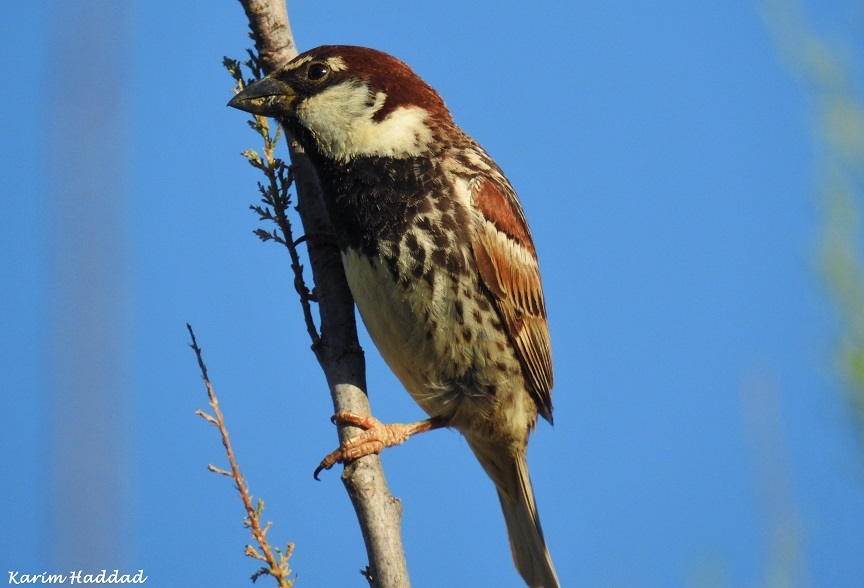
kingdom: Animalia
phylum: Chordata
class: Aves
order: Passeriformes
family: Passeridae
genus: Passer
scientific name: Passer hispaniolensis
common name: Spanish sparrow
